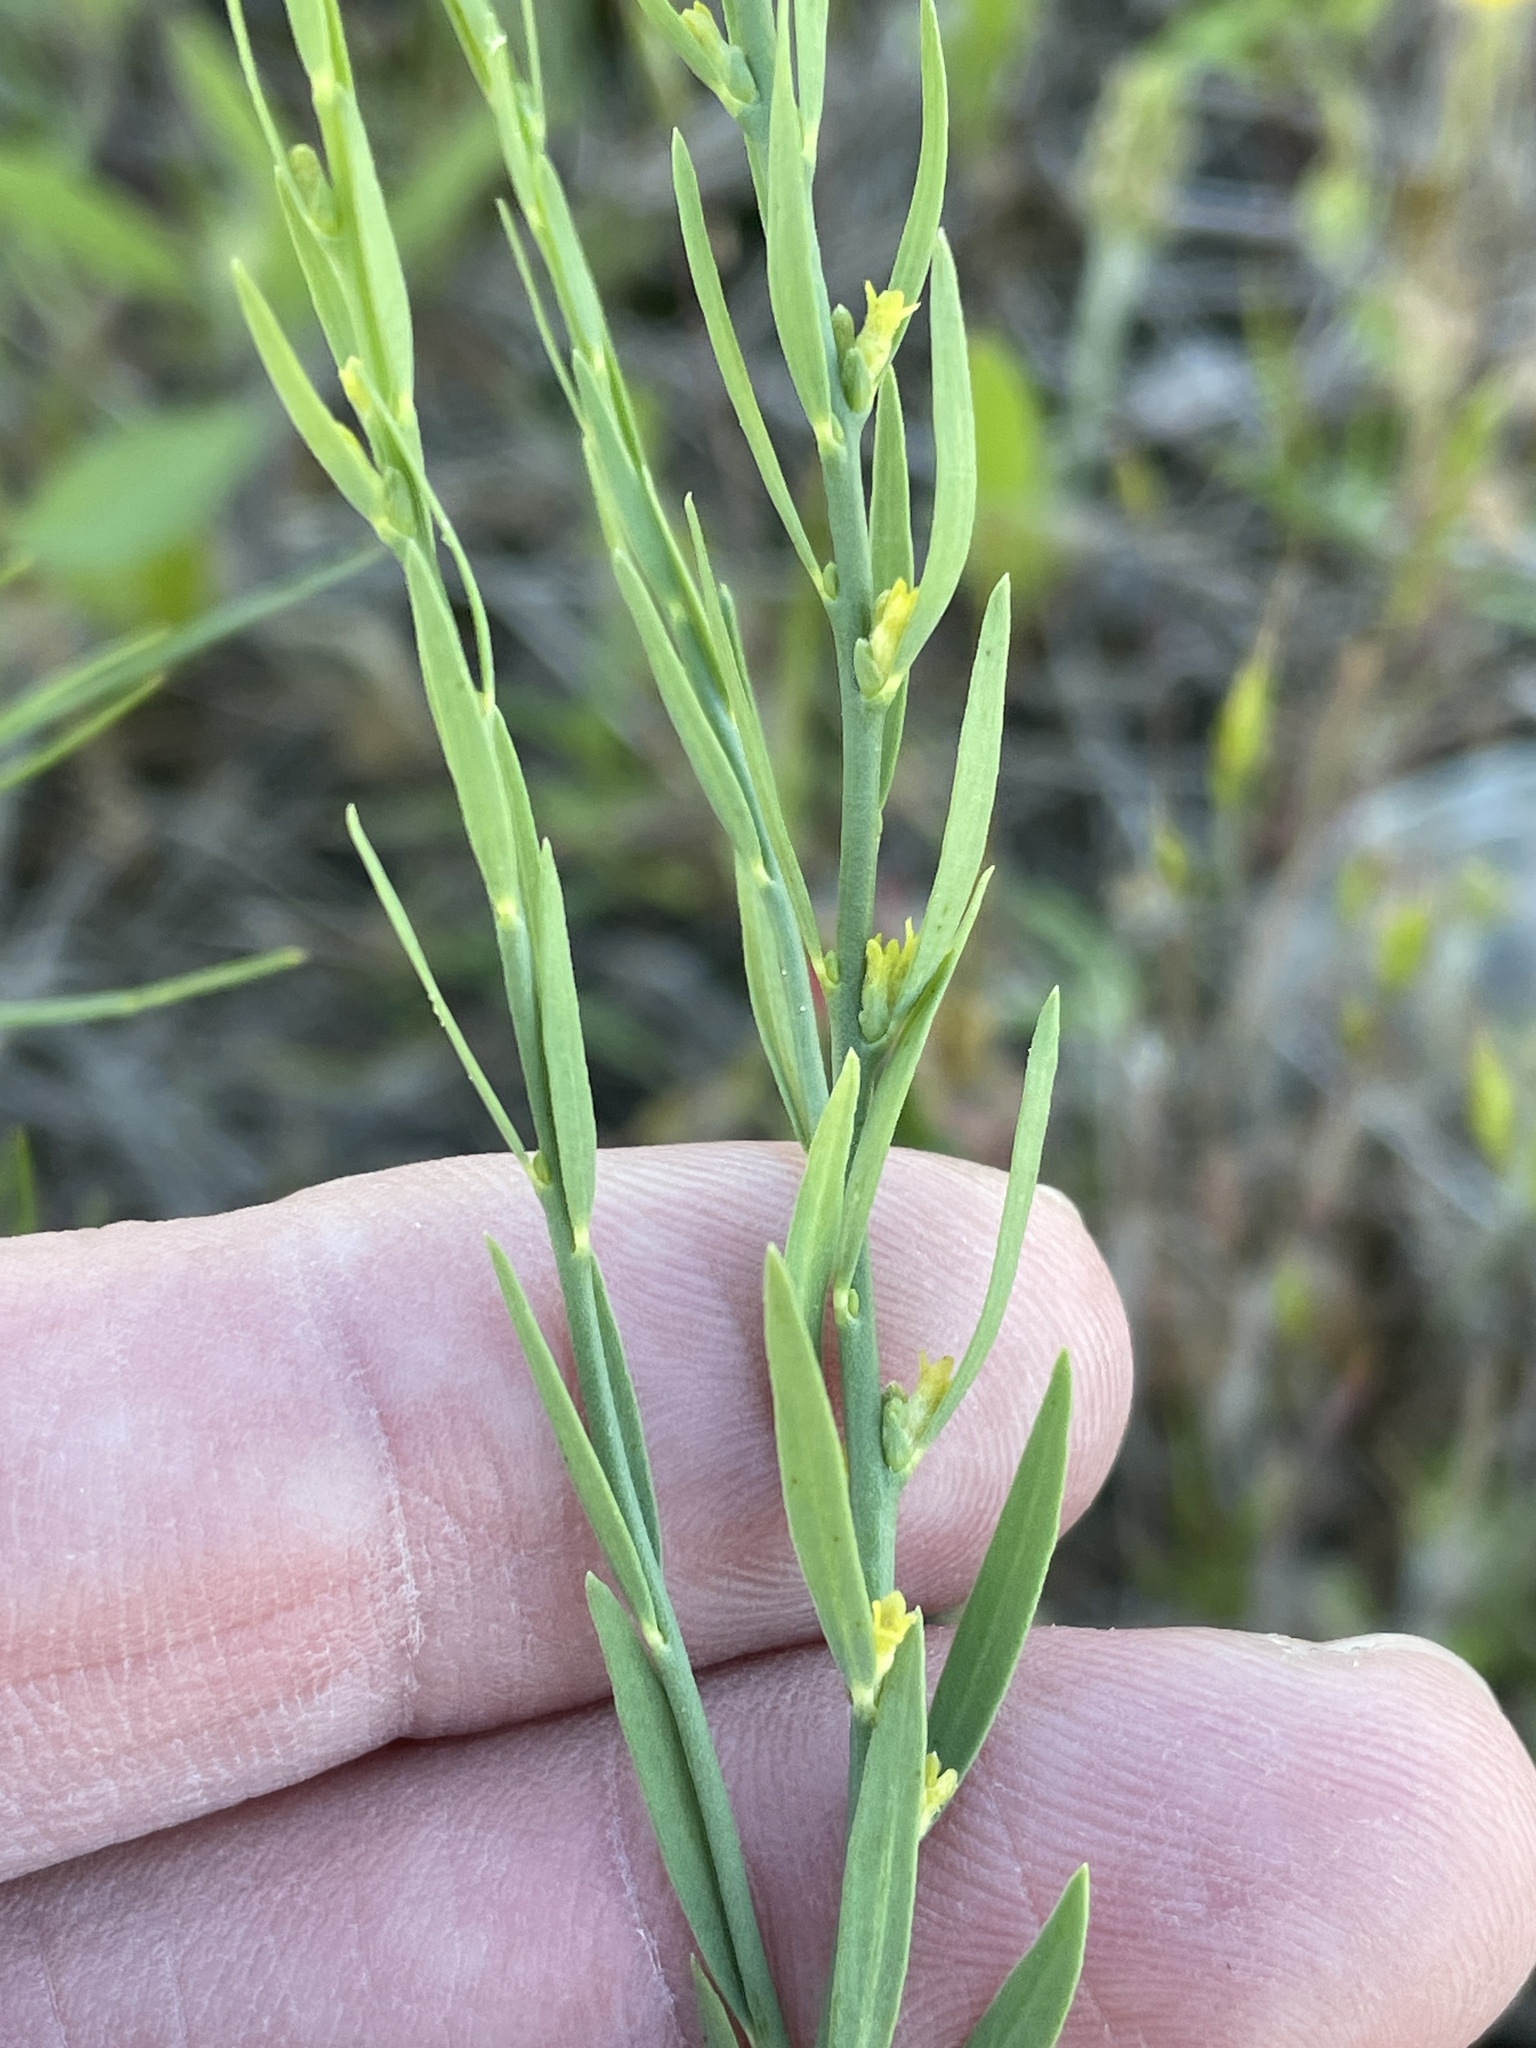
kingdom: Plantae
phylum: Tracheophyta
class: Magnoliopsida
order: Malvales
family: Thymelaeaceae
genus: Thymelaea
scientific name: Thymelaea passerina
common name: Annual thymelaea
